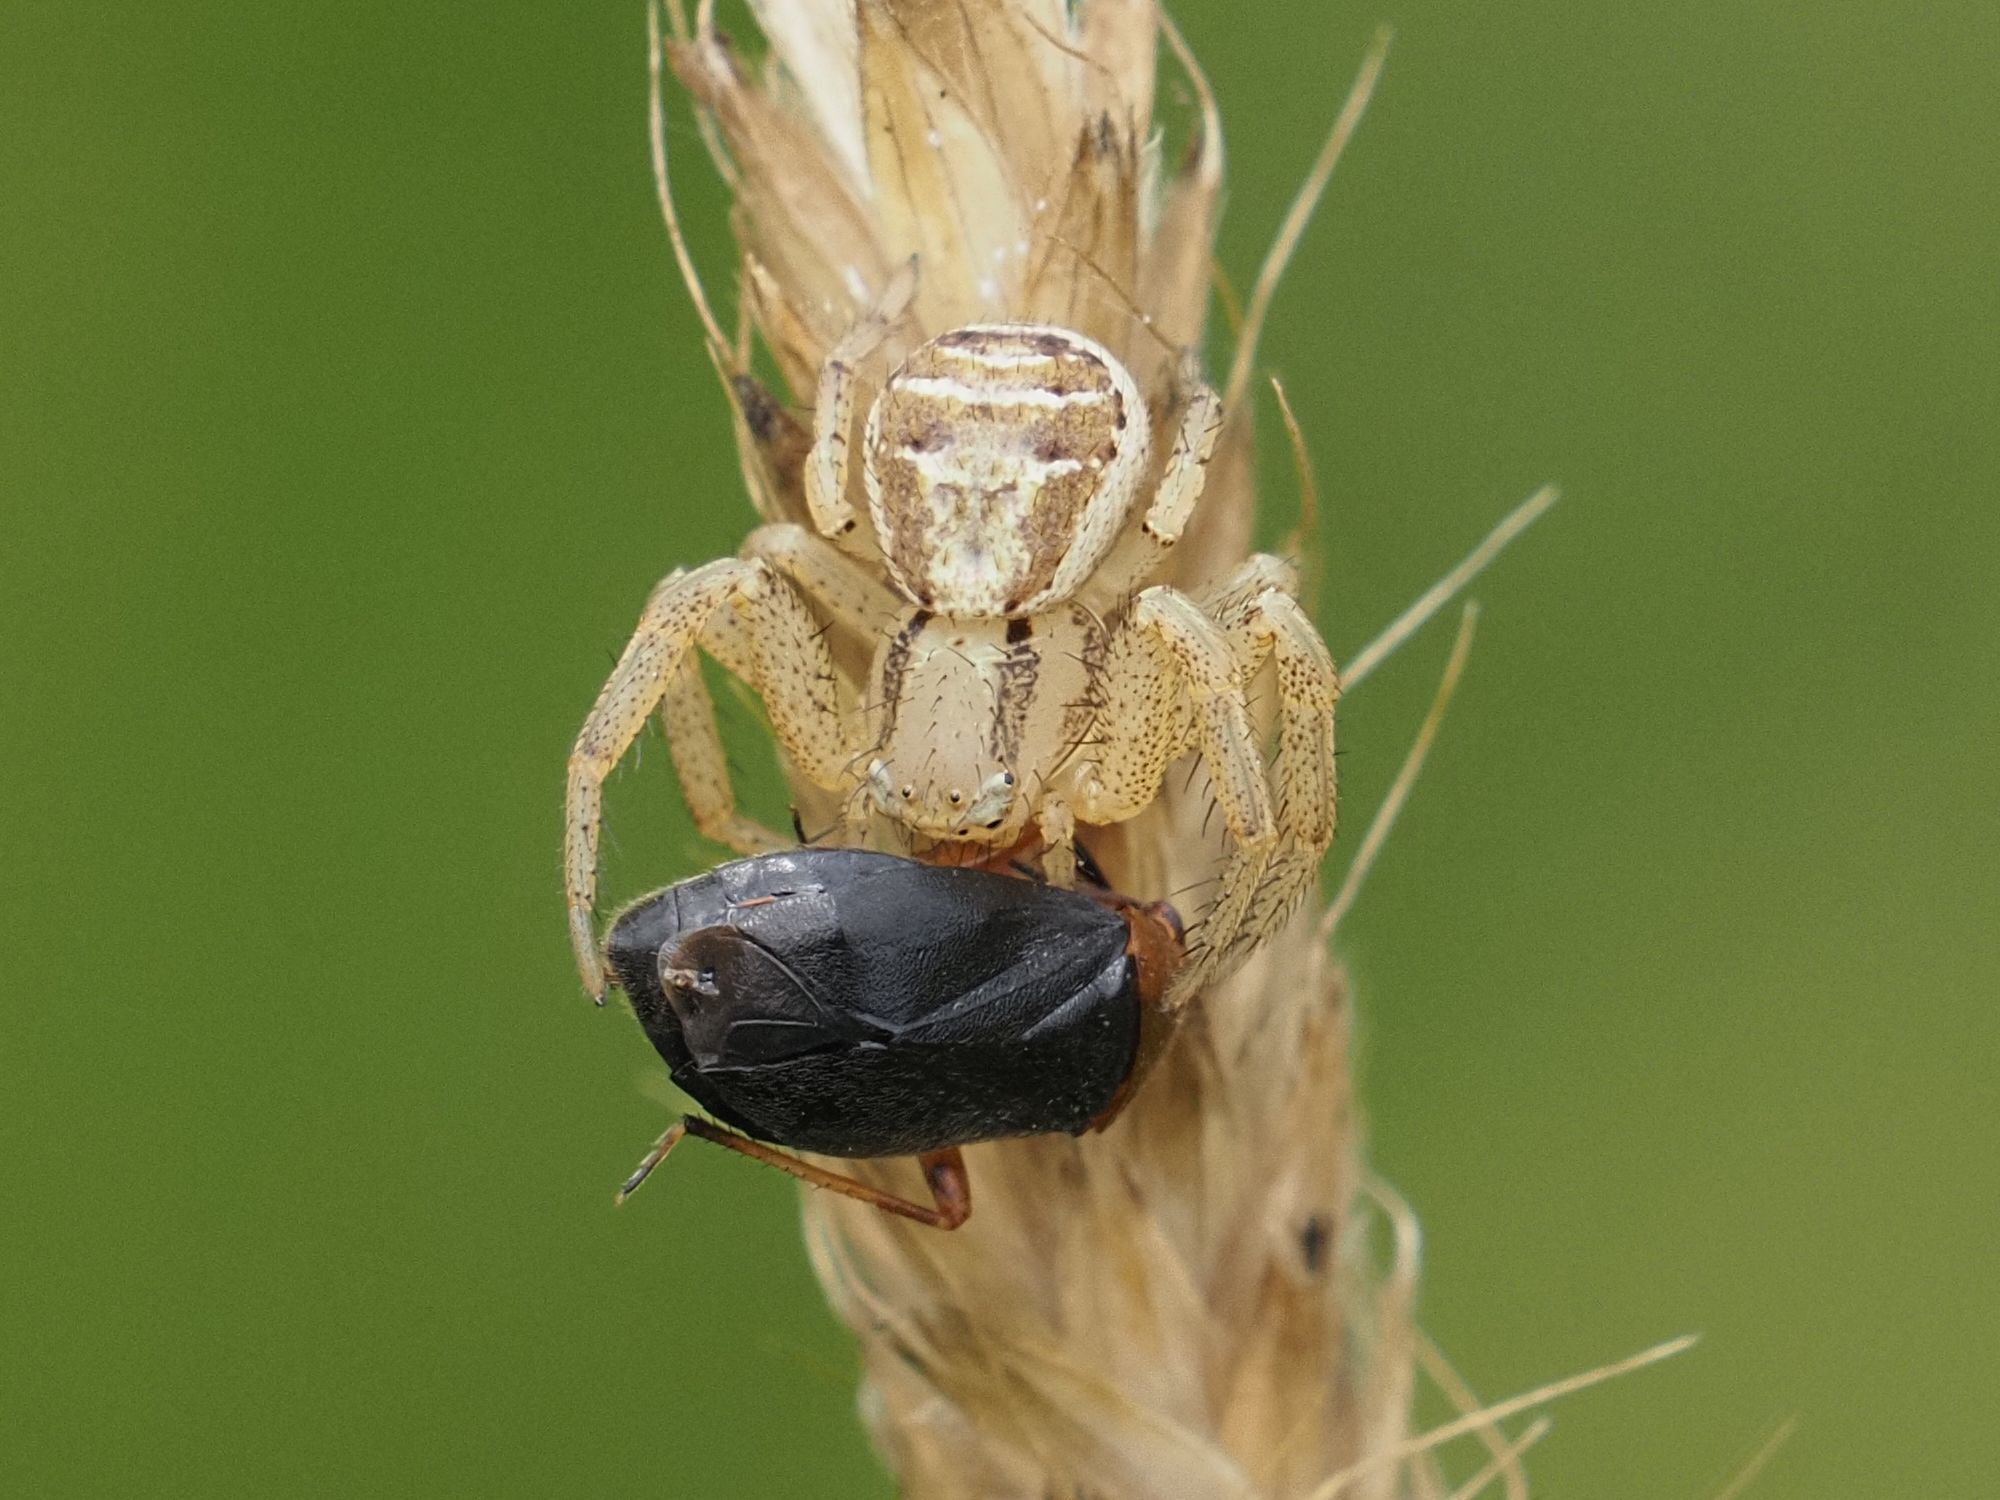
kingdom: Animalia
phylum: Arthropoda
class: Insecta
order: Hemiptera
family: Miridae
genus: Capsus
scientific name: Capsus ater
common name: Black plant bug
